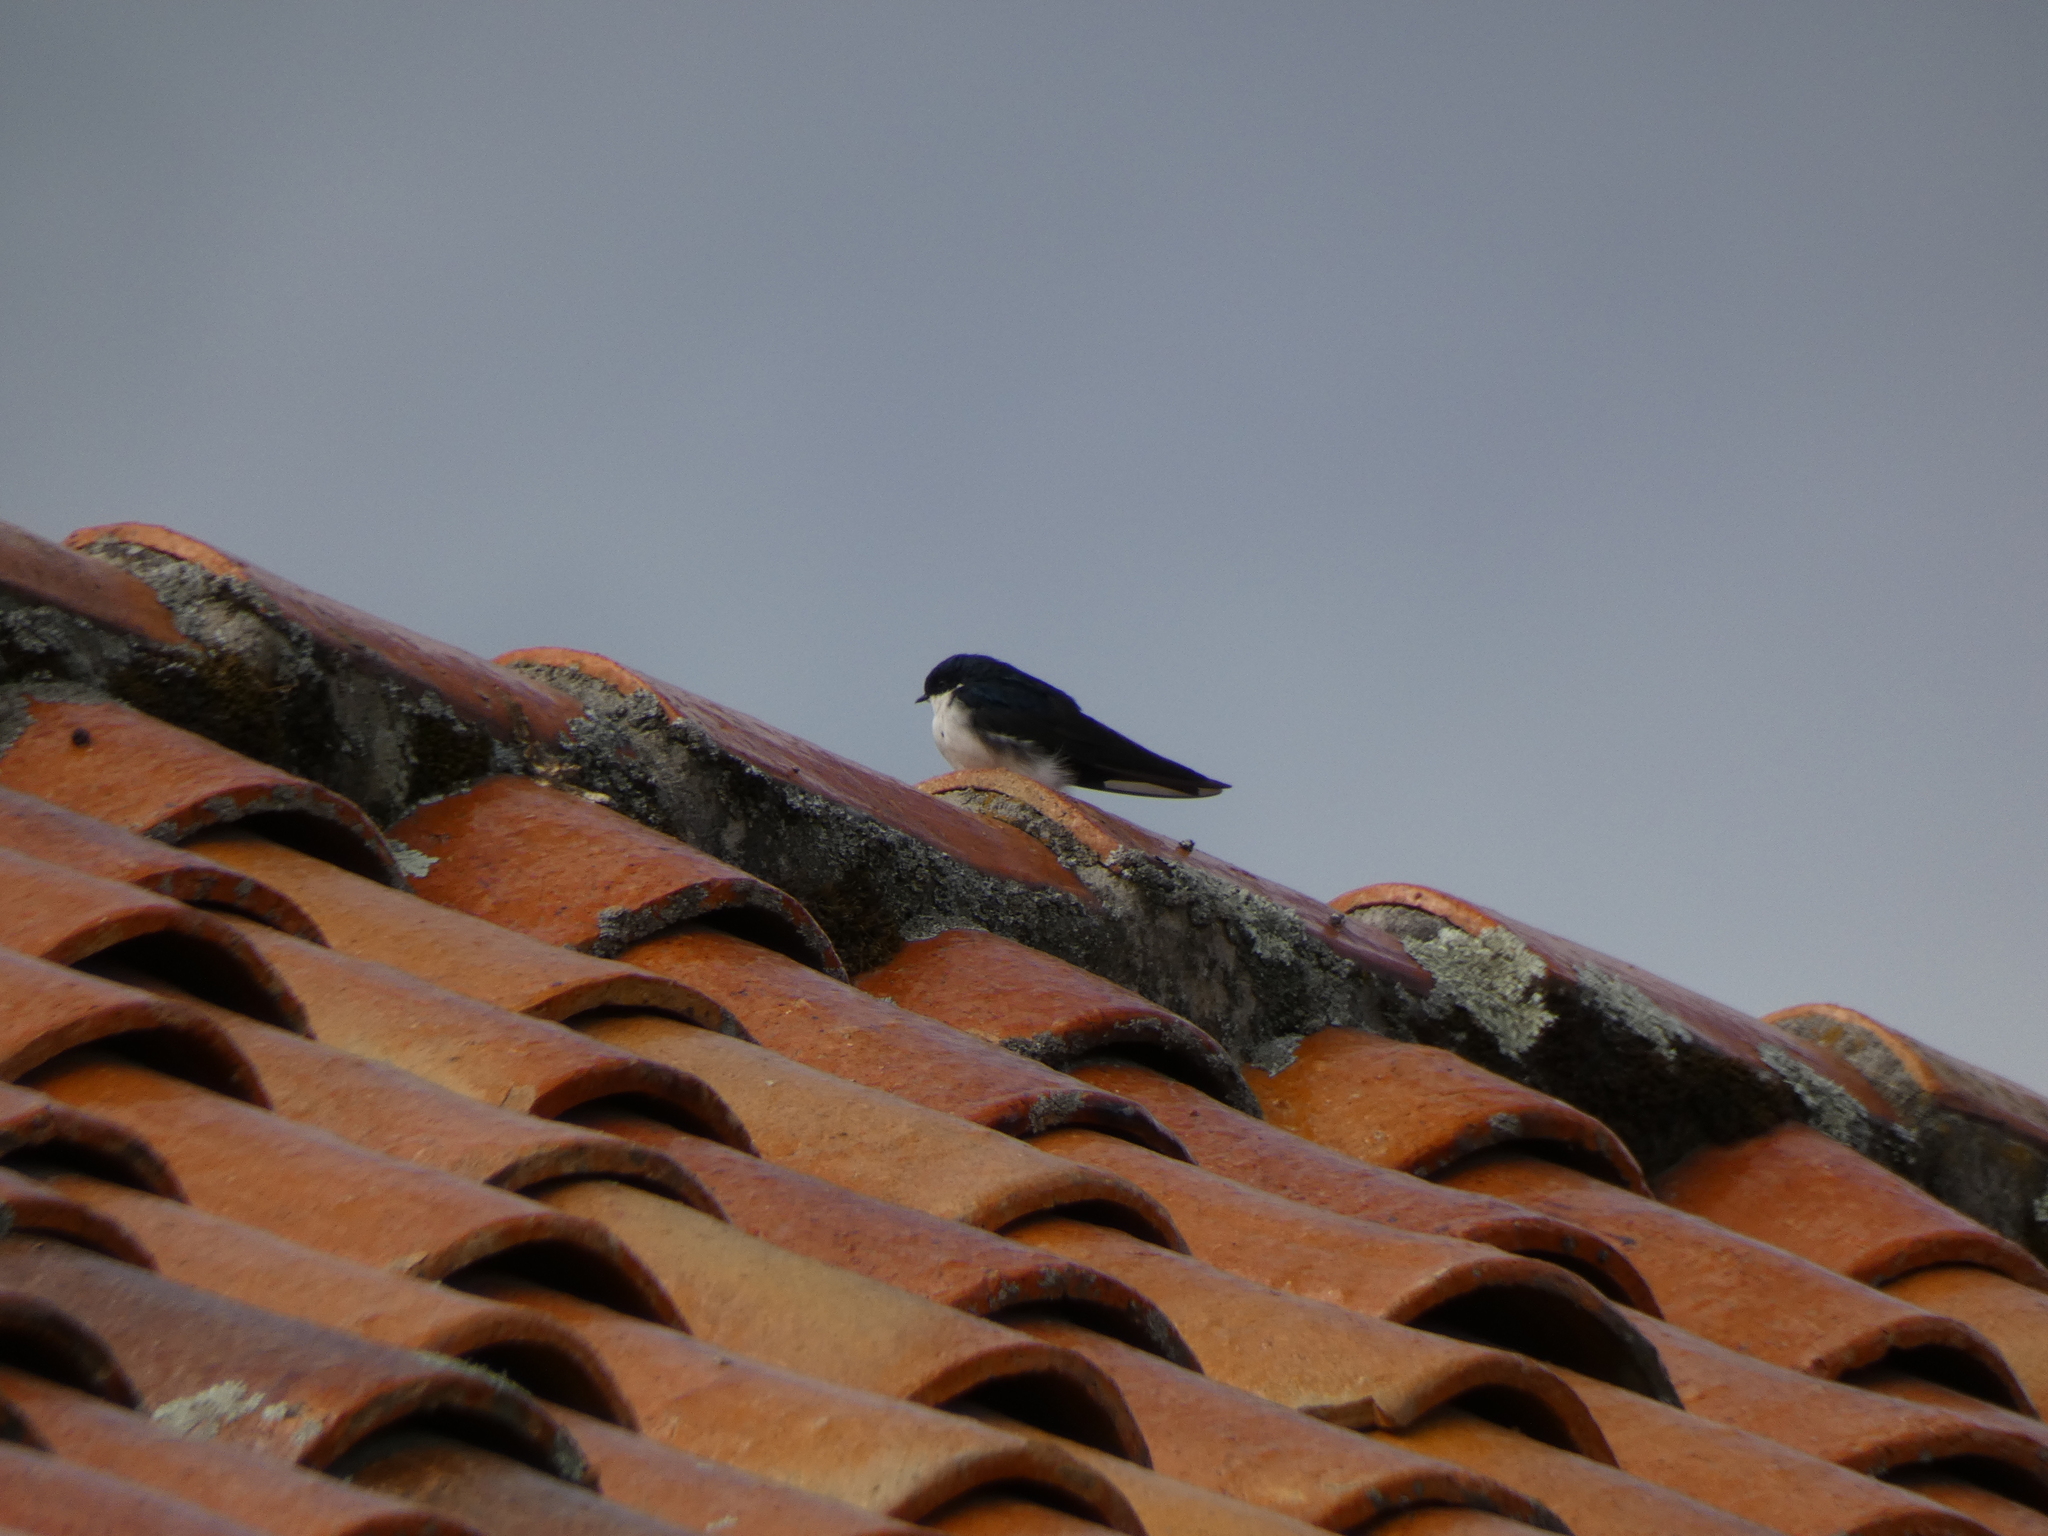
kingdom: Animalia
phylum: Chordata
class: Aves
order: Passeriformes
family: Hirundinidae
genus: Notiochelidon
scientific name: Notiochelidon cyanoleuca
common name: Blue-and-white swallow
